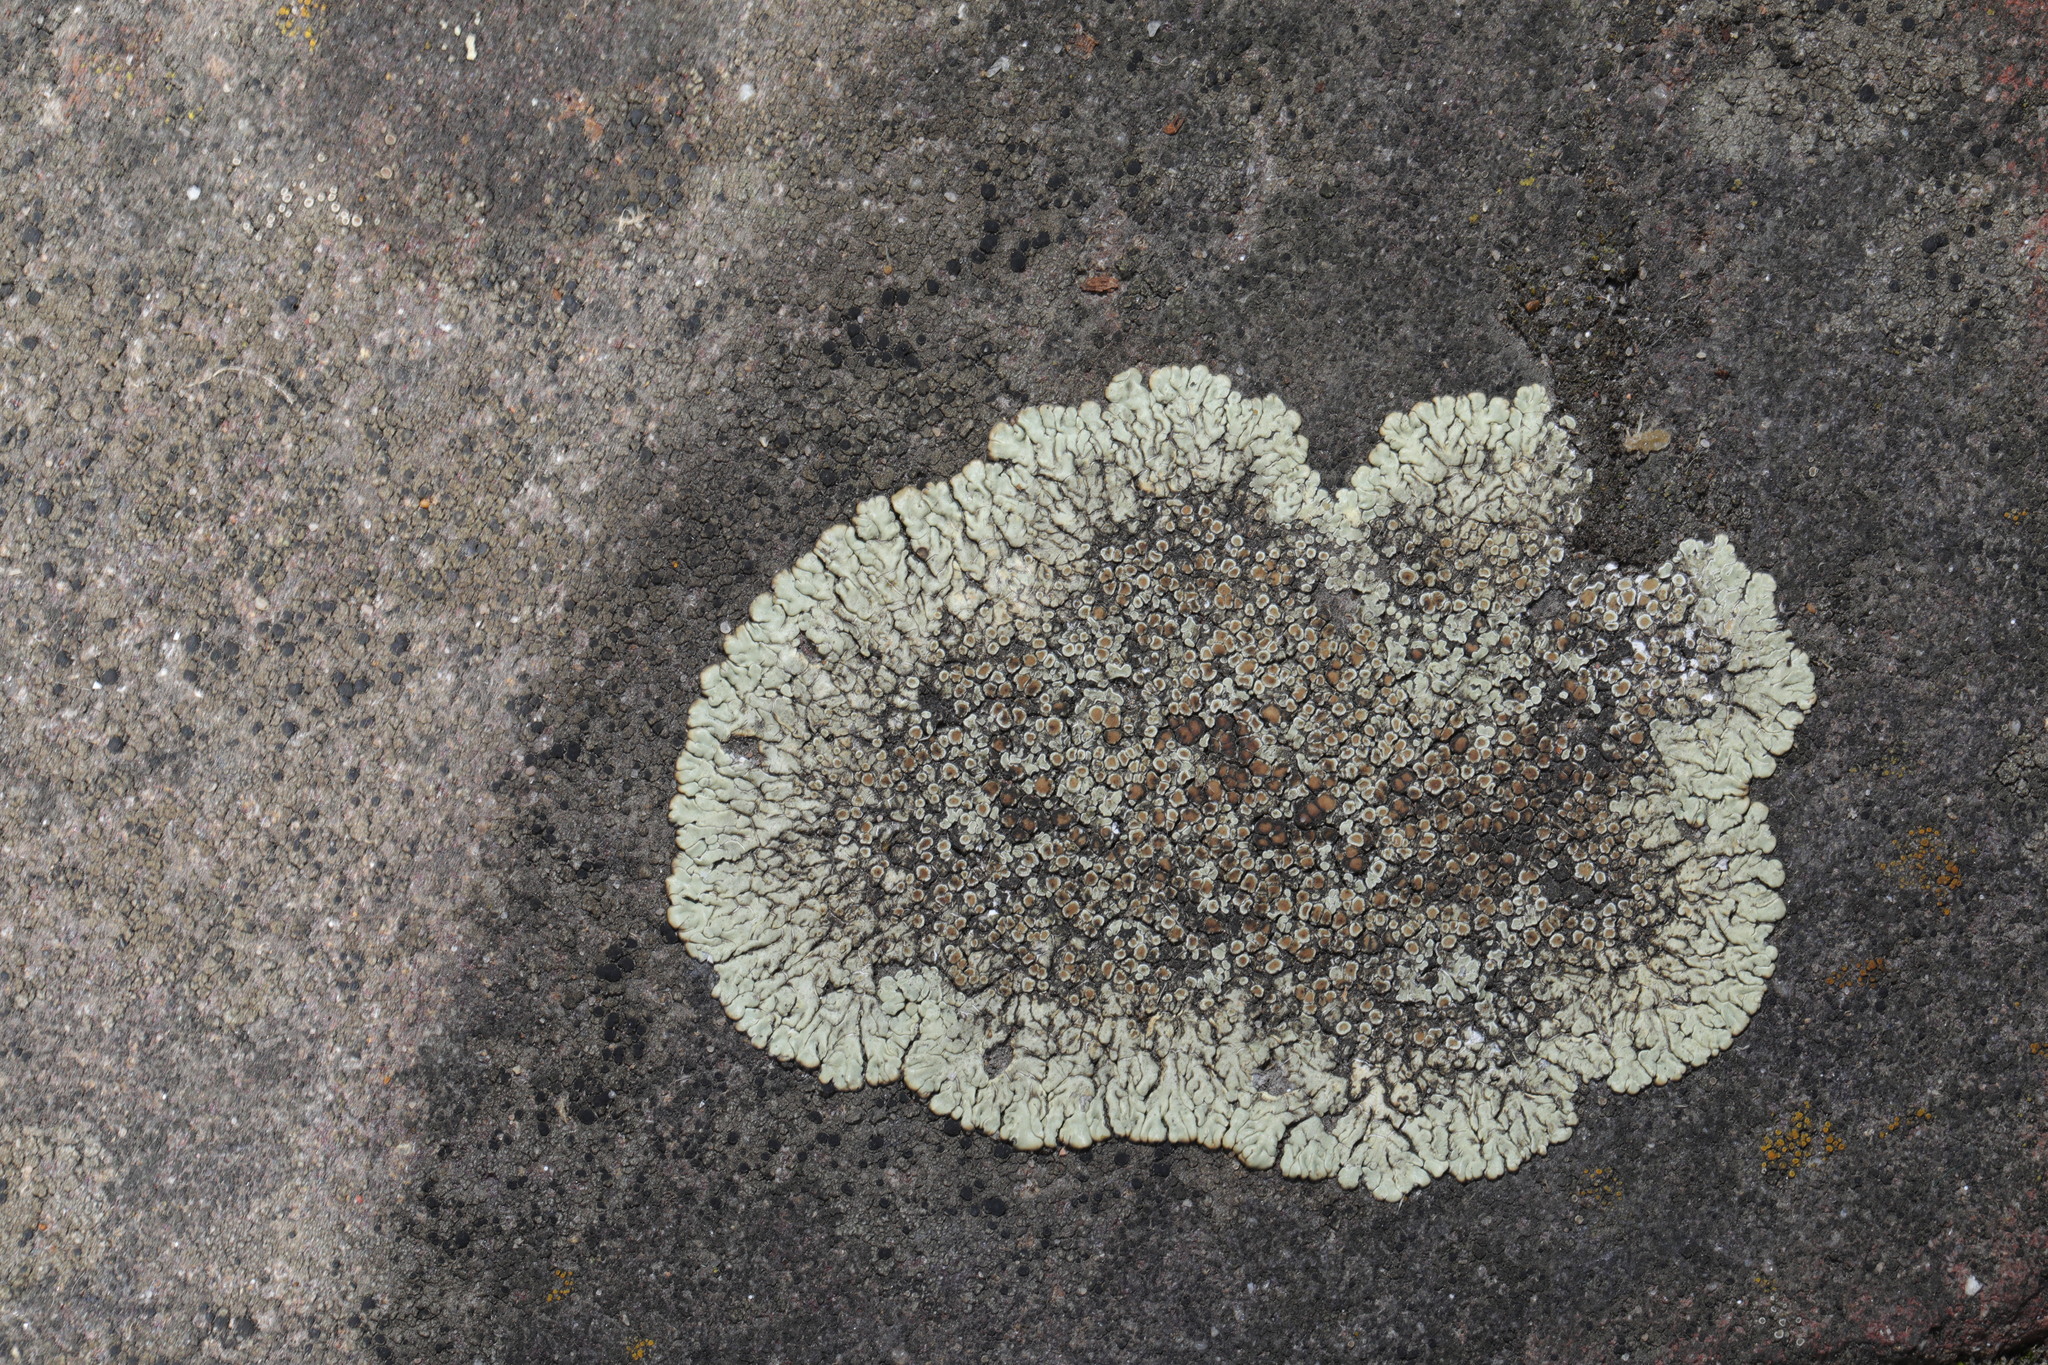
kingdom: Fungi
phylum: Ascomycota
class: Lecanoromycetes
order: Lecanorales
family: Lecanoraceae
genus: Protoparmeliopsis
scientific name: Protoparmeliopsis muralis
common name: Stonewall rim lichen
